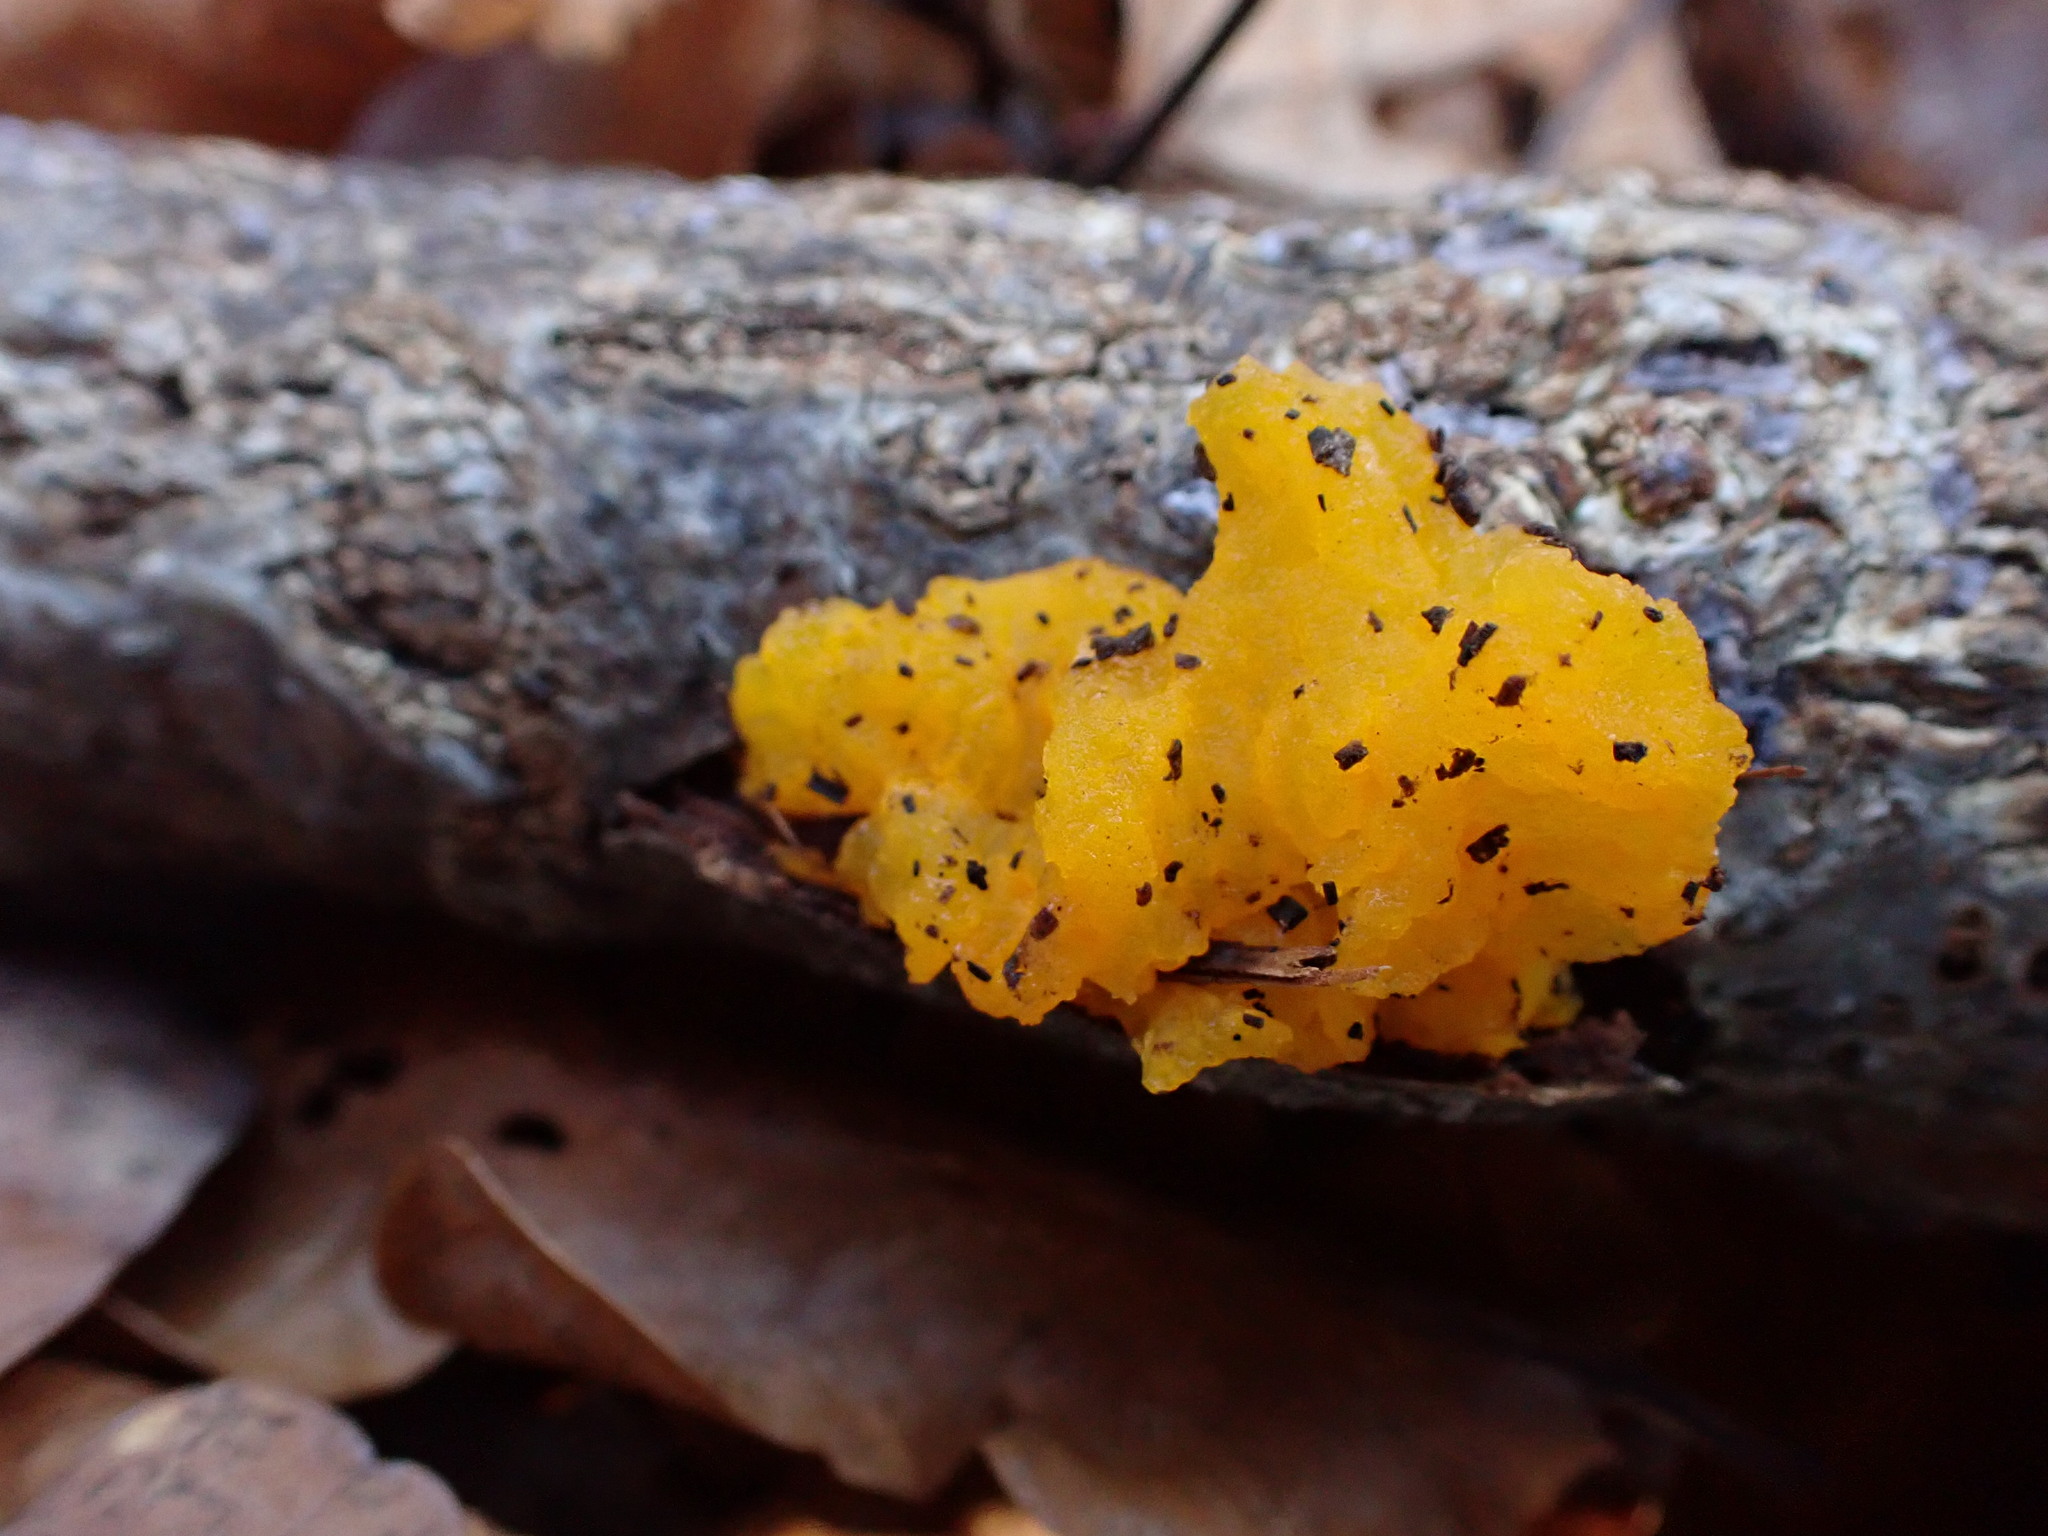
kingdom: Fungi
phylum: Basidiomycota
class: Tremellomycetes
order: Tremellales
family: Tremellaceae
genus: Tremella
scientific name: Tremella mesenterica
